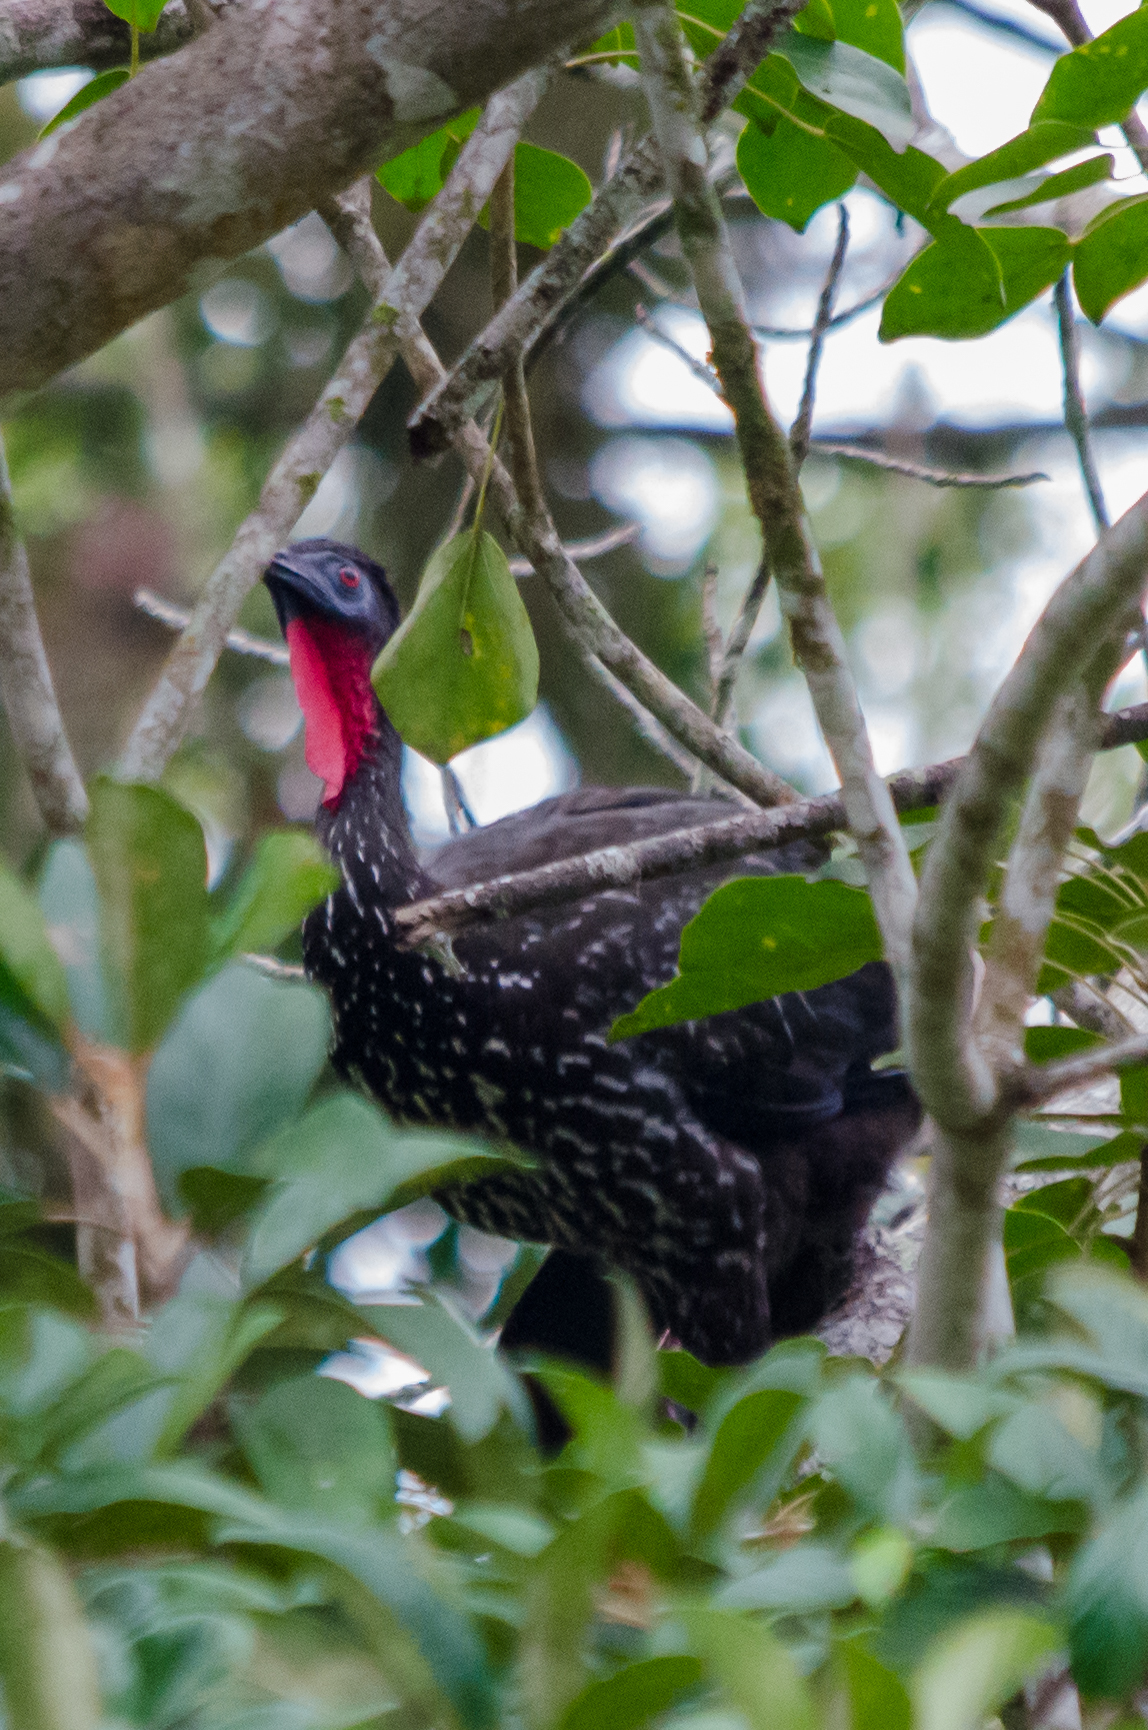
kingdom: Animalia
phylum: Chordata
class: Aves
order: Galliformes
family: Cracidae
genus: Penelope
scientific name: Penelope purpurascens
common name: Crested guan
